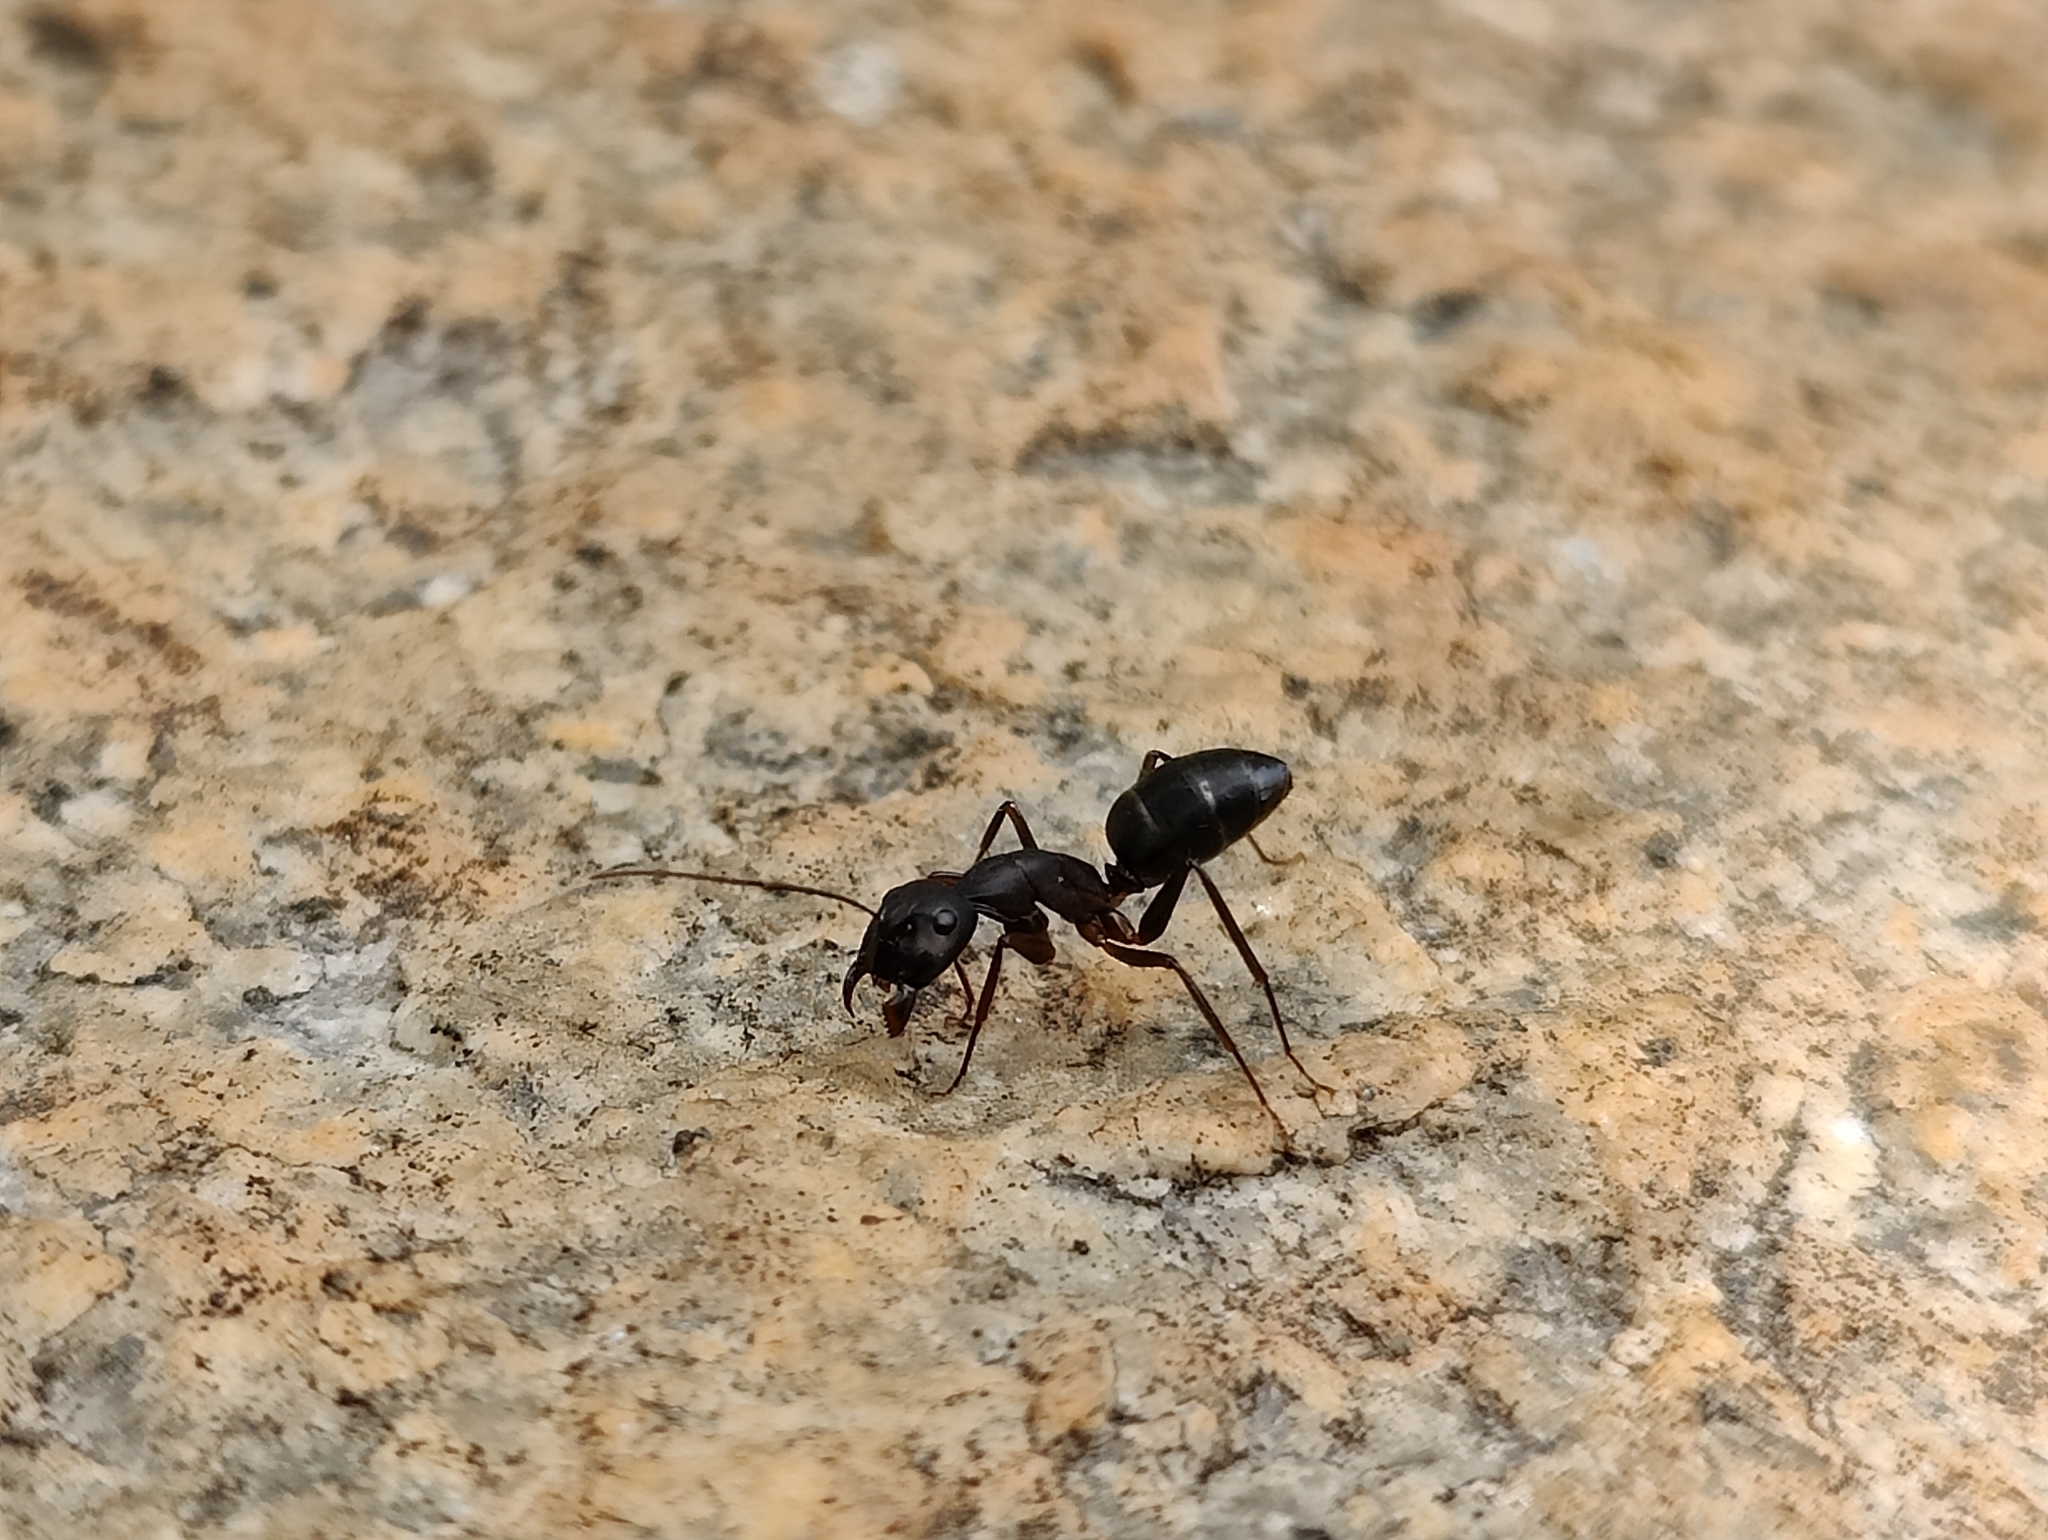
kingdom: Animalia
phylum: Arthropoda
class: Insecta
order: Hymenoptera
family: Formicidae
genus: Camponotus
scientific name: Camponotus compressus
